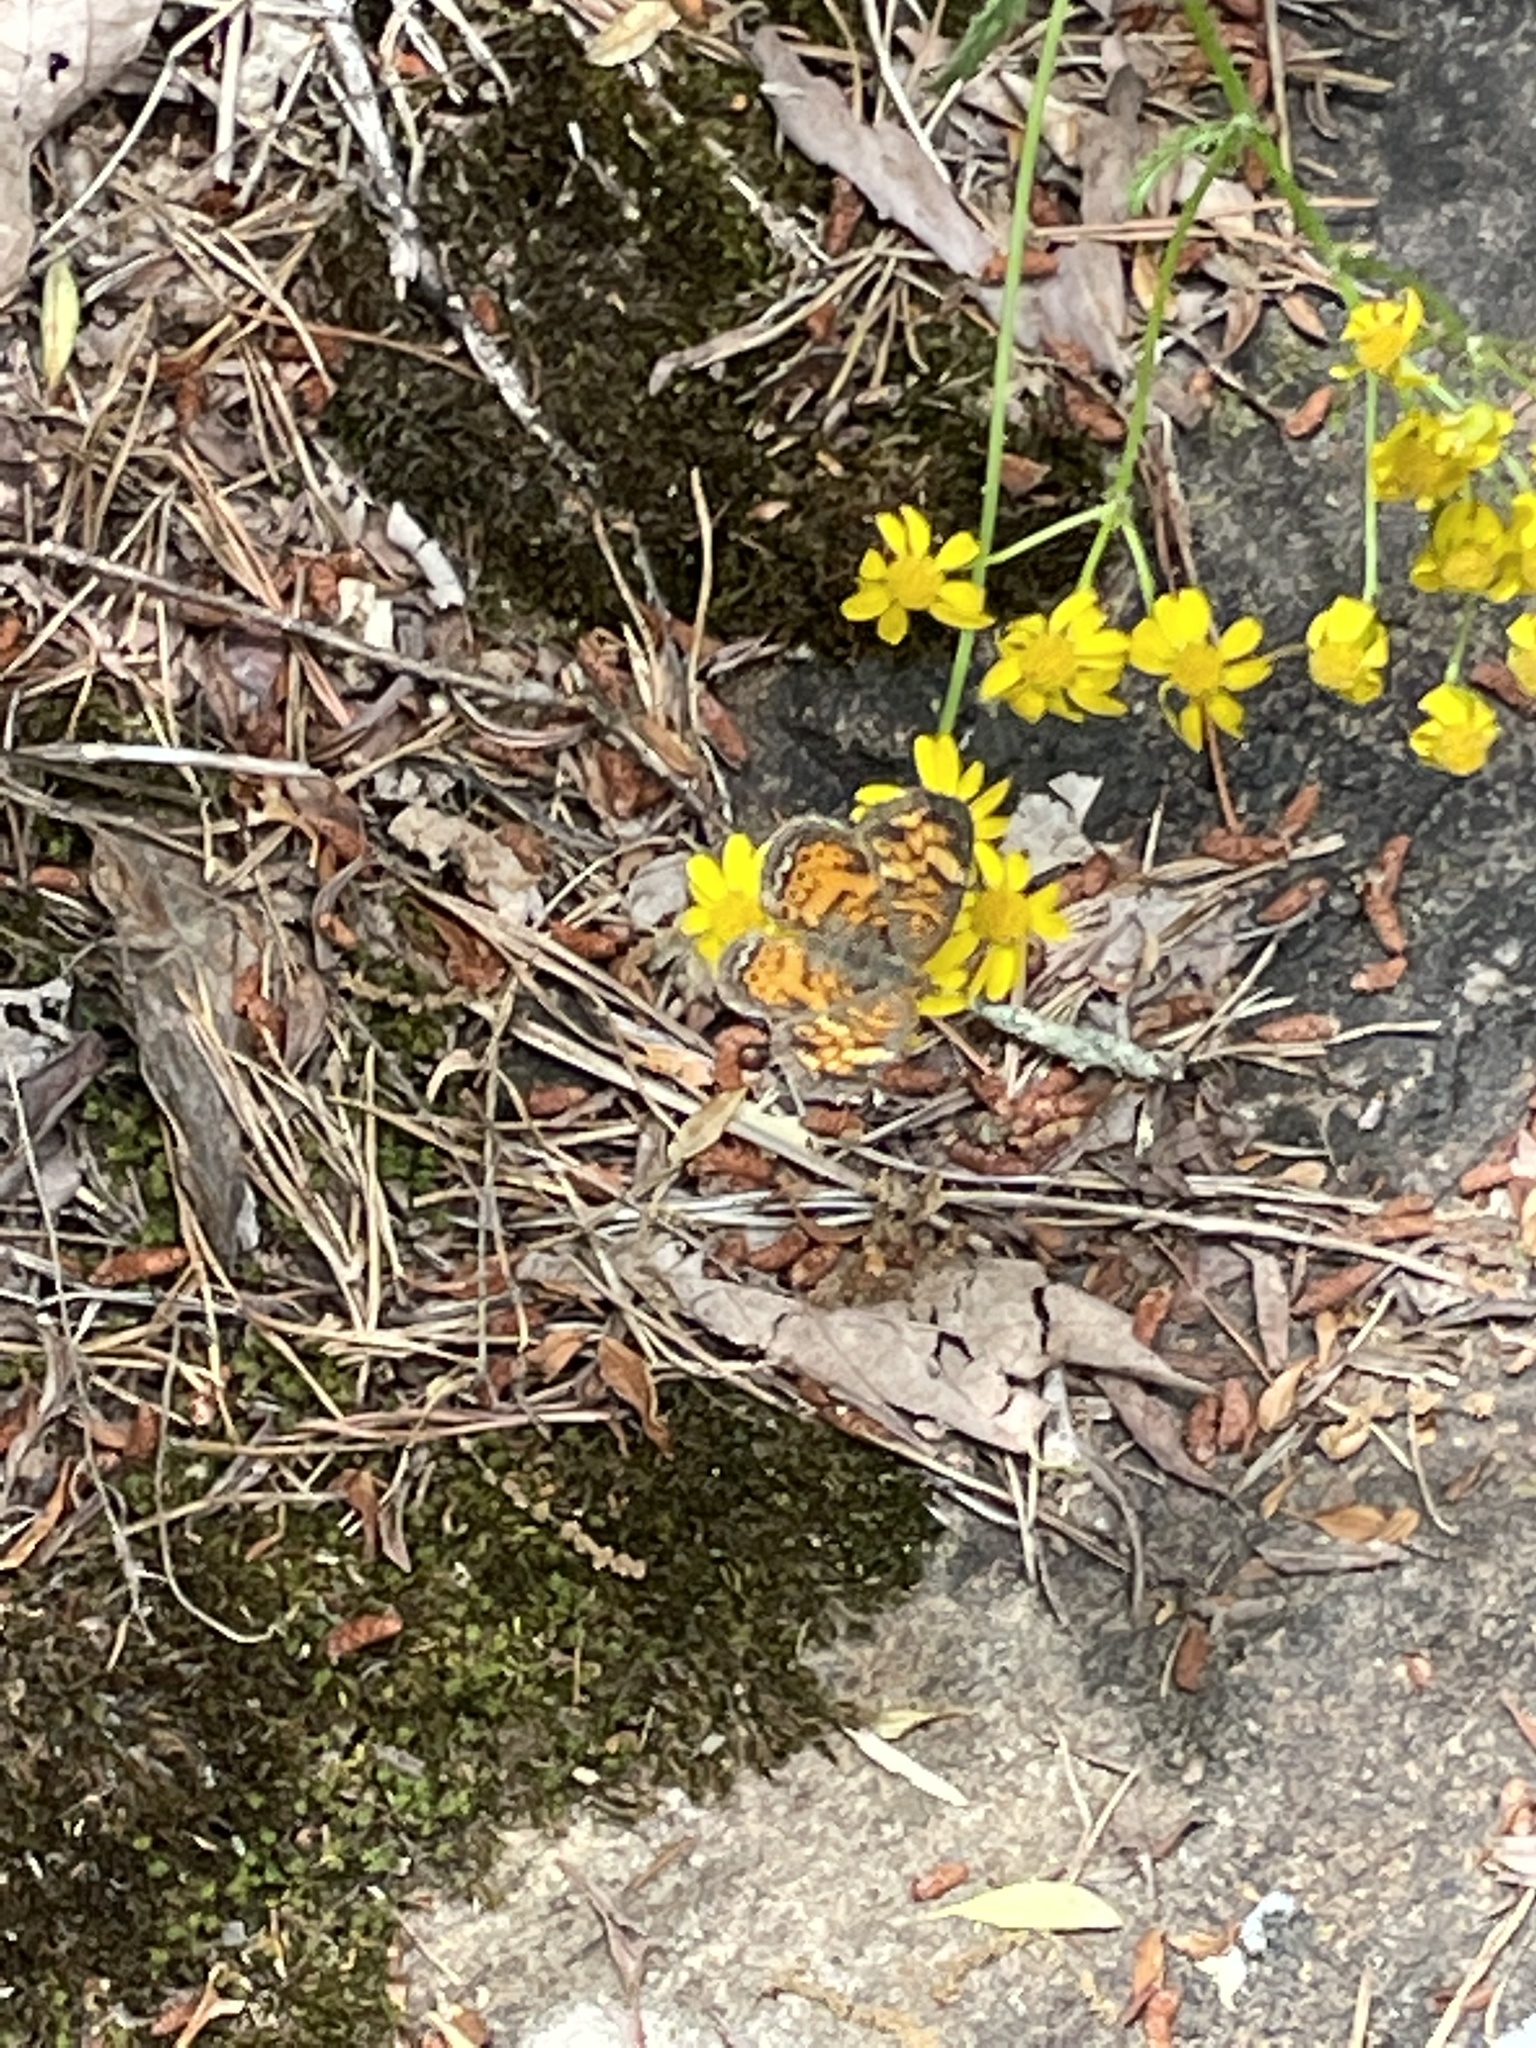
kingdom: Animalia
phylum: Arthropoda
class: Insecta
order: Lepidoptera
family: Nymphalidae
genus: Phyciodes
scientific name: Phyciodes tharos
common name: Pearl crescent
